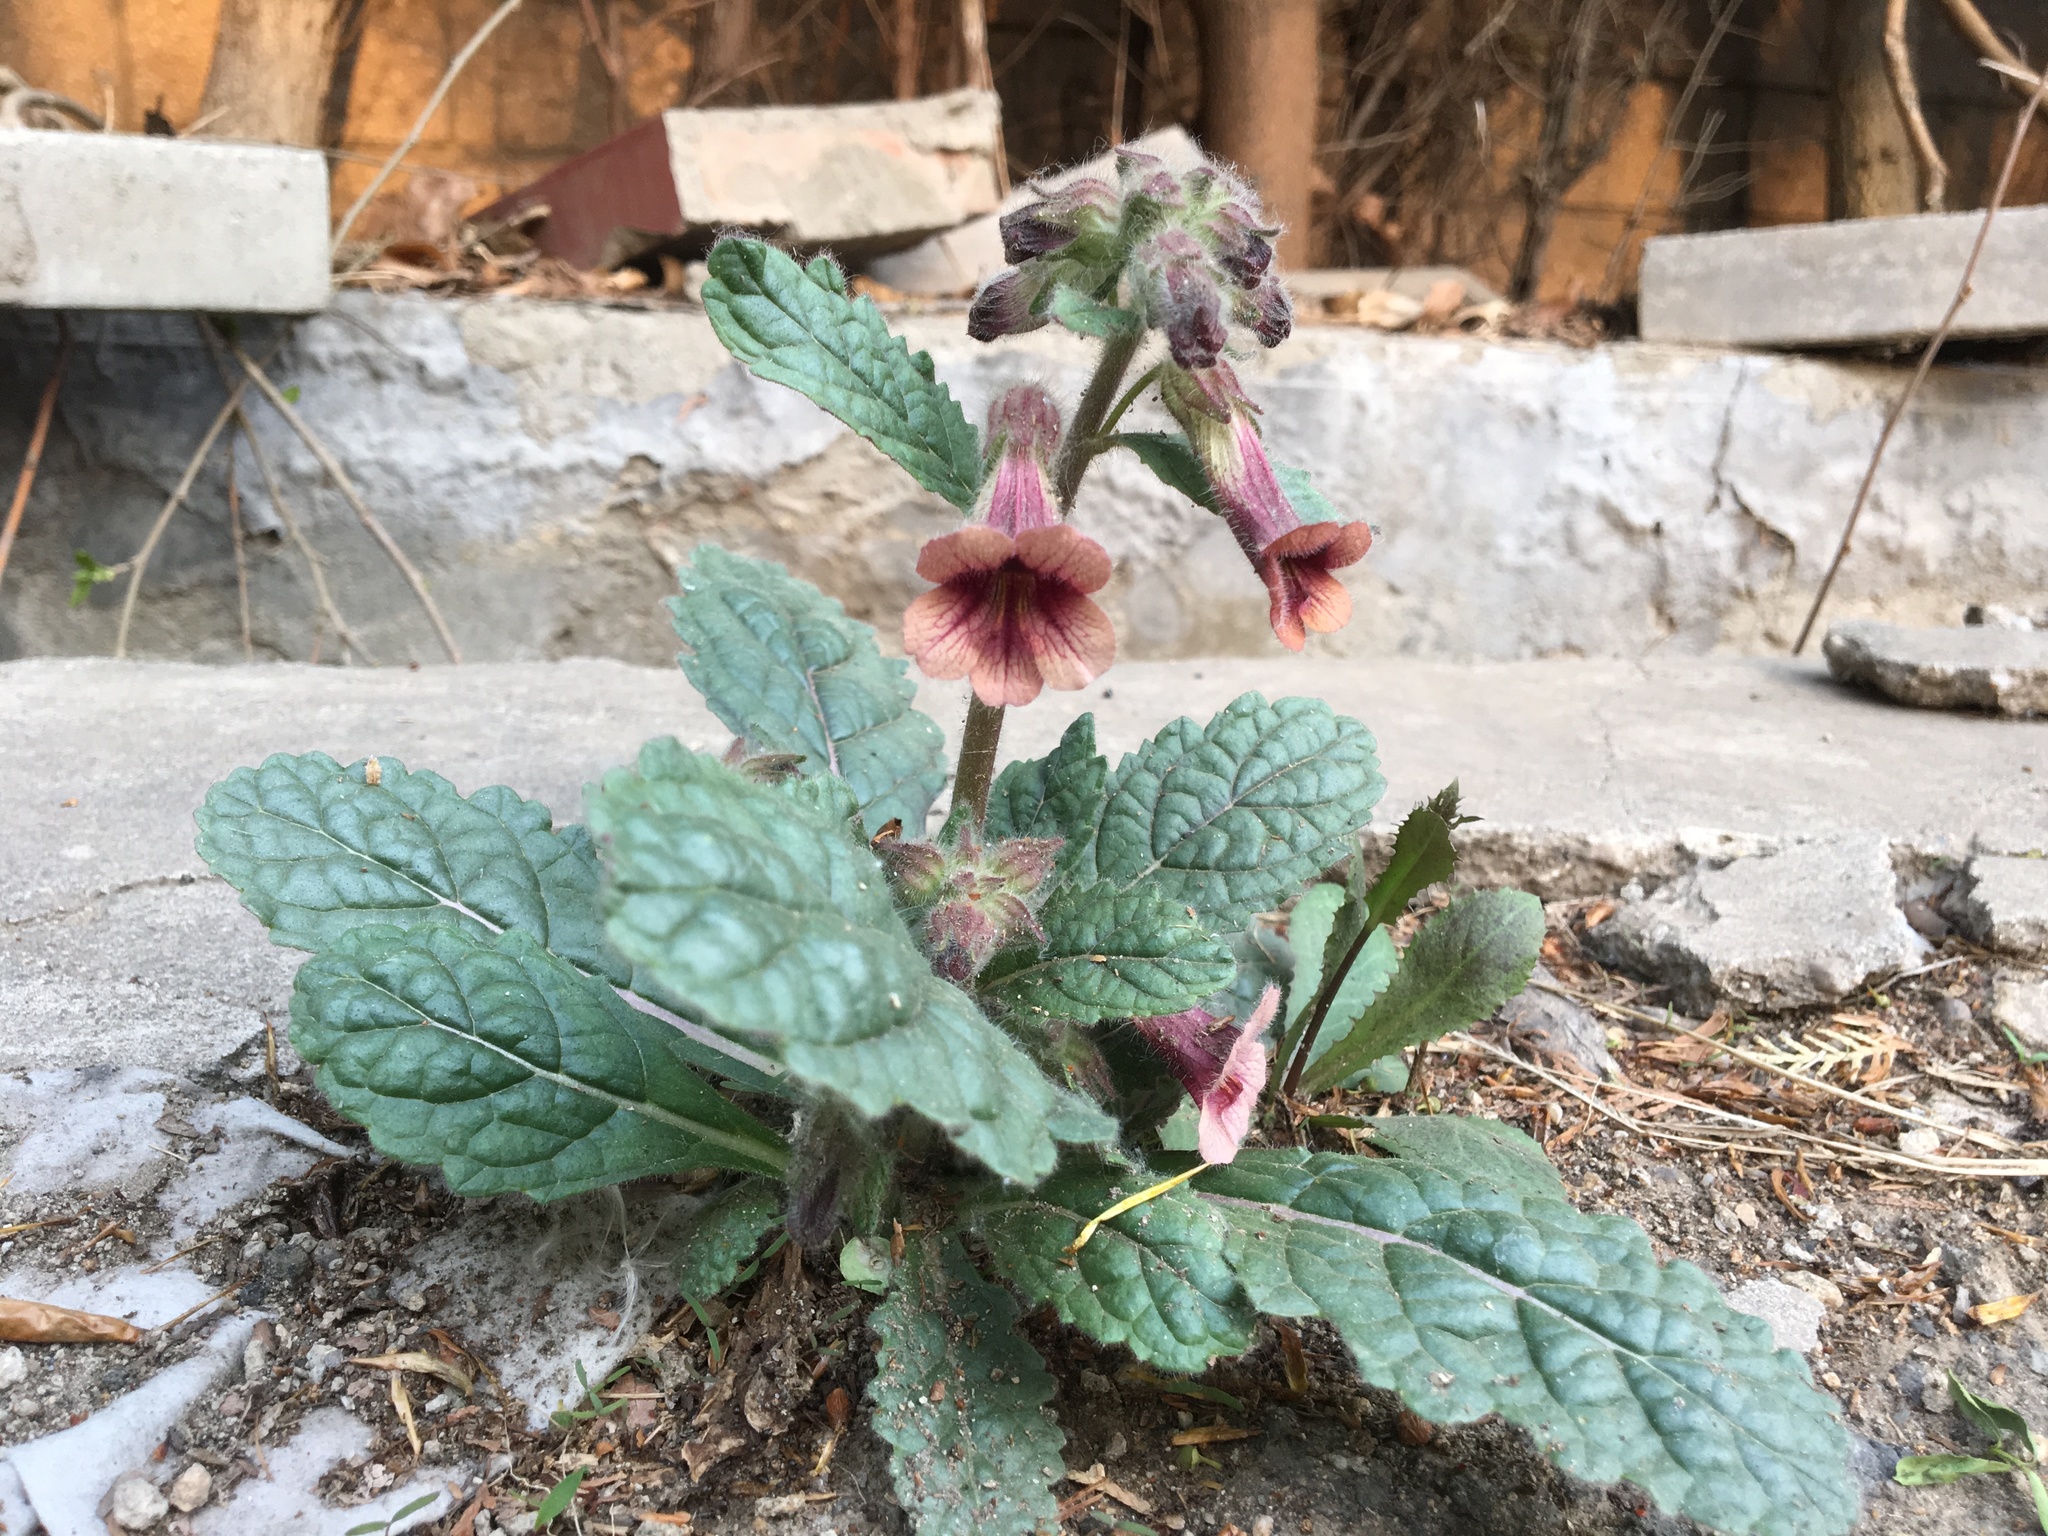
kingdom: Plantae
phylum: Tracheophyta
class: Magnoliopsida
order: Lamiales
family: Rehmanniaceae
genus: Rehmannia
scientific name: Rehmannia glutinosa
